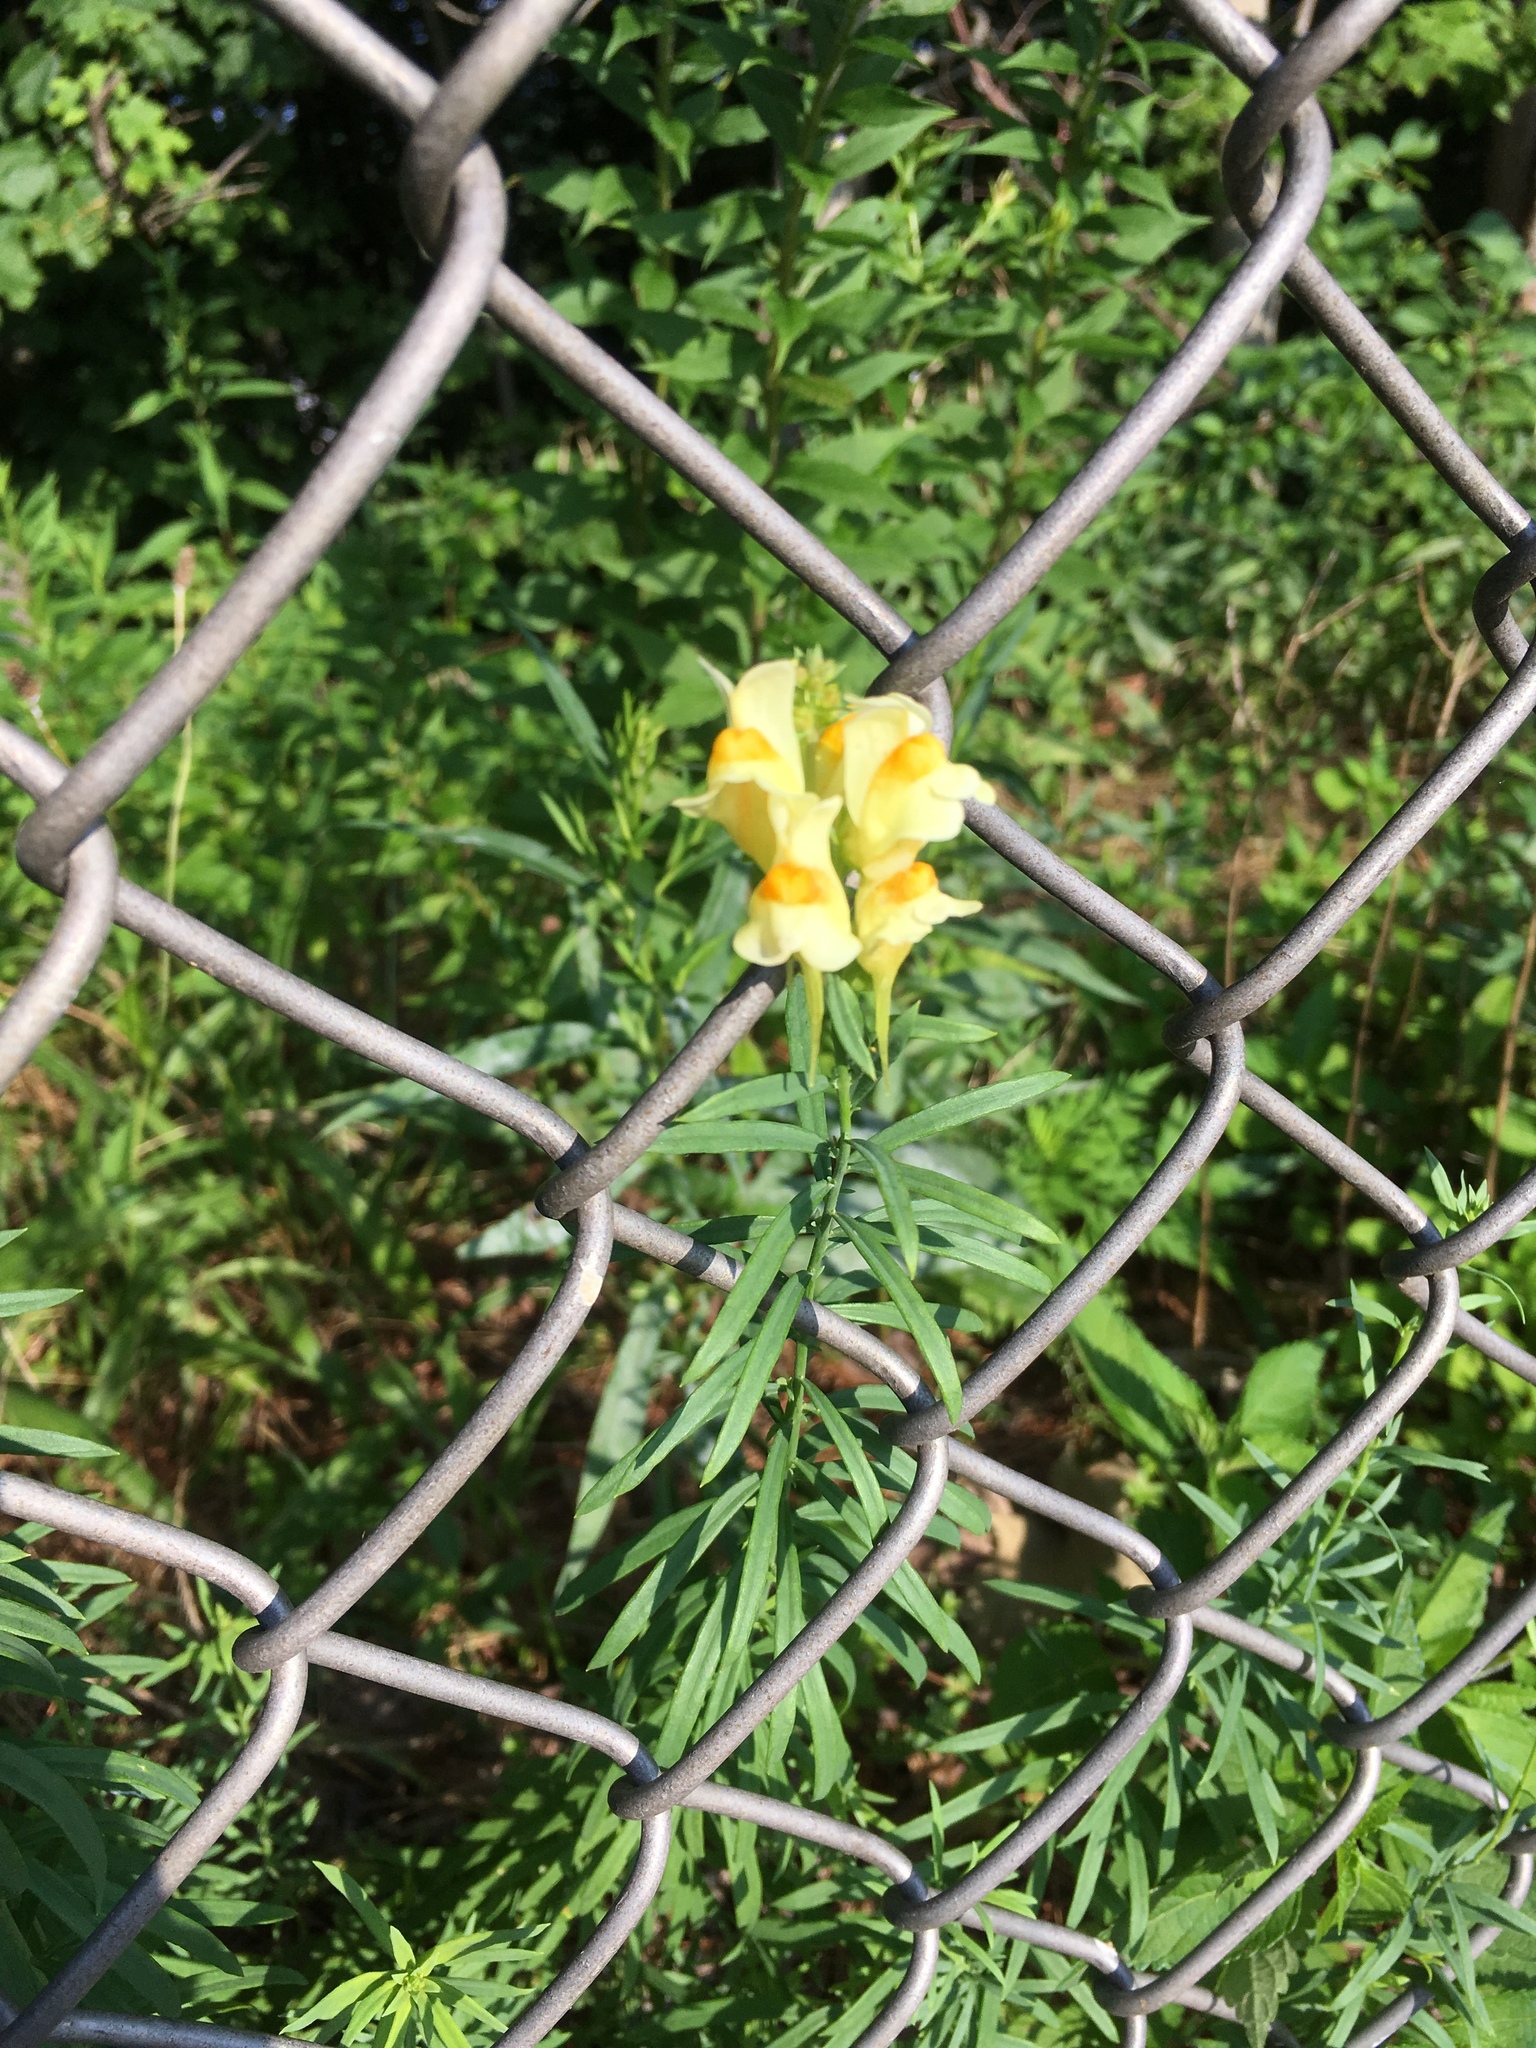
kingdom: Plantae
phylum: Tracheophyta
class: Magnoliopsida
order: Lamiales
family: Plantaginaceae
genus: Linaria
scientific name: Linaria vulgaris
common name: Butter and eggs
